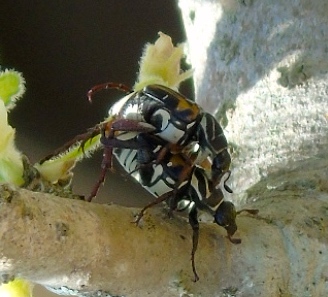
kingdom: Animalia
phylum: Arthropoda
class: Insecta
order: Coleoptera
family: Scarabaeidae
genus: Trigonopeltastes
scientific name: Trigonopeltastes
